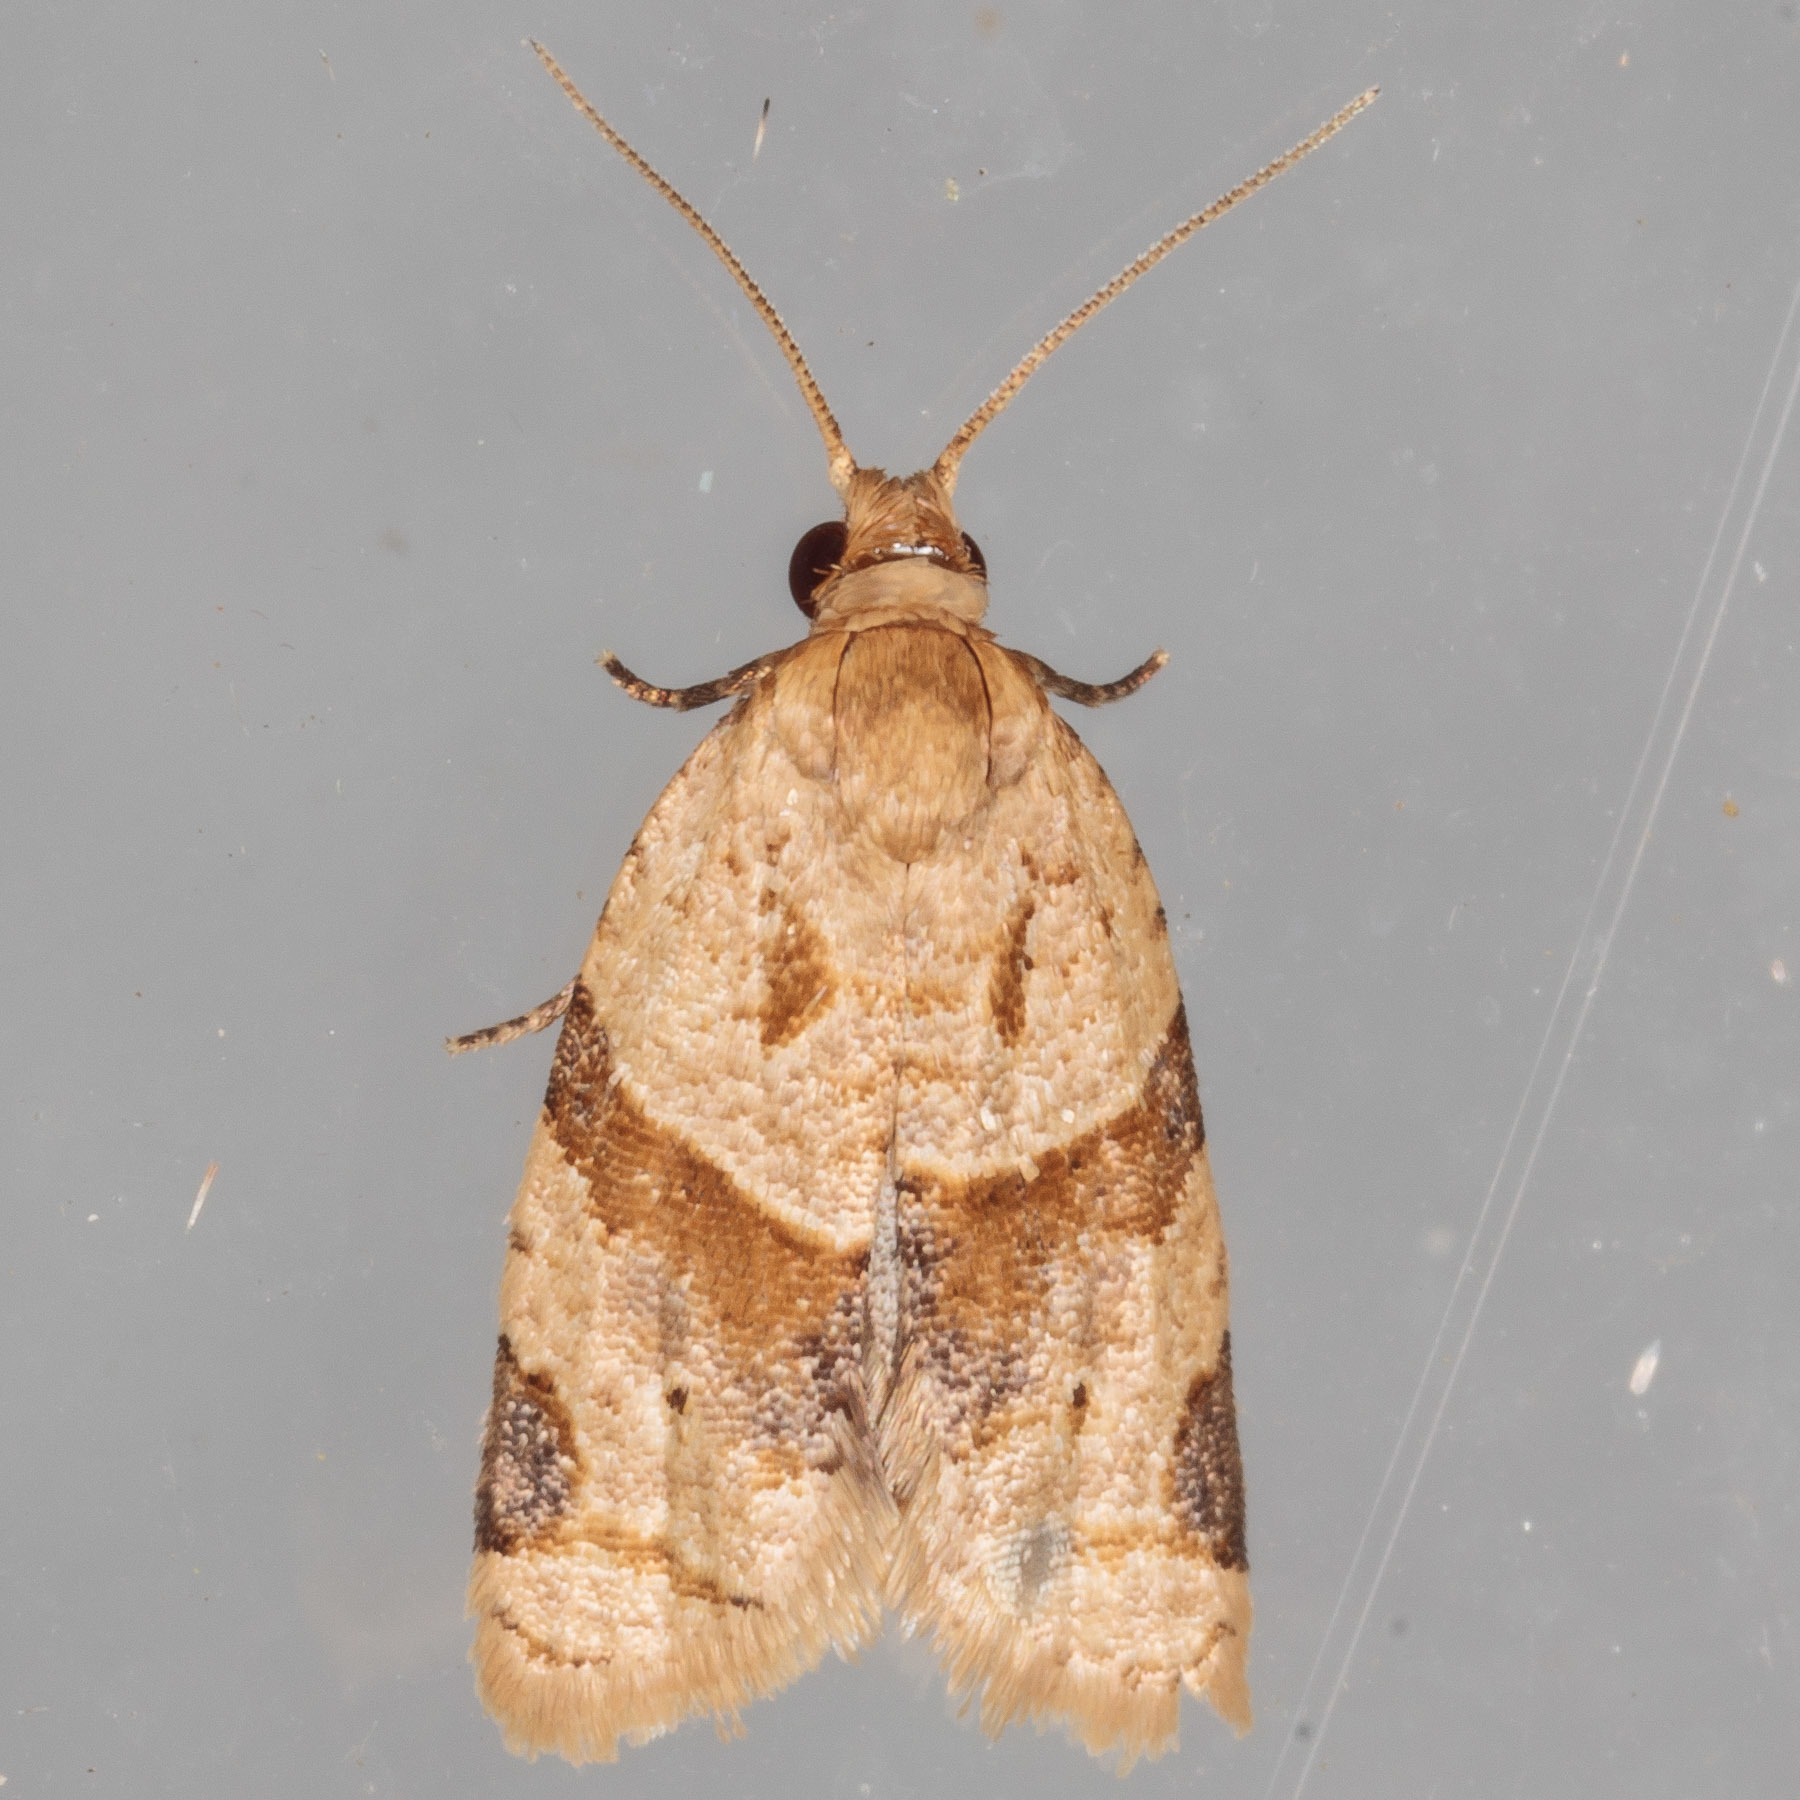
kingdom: Animalia
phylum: Arthropoda
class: Insecta
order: Lepidoptera
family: Tortricidae
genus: Clepsis
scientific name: Clepsis peritana
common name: Garden tortrix
